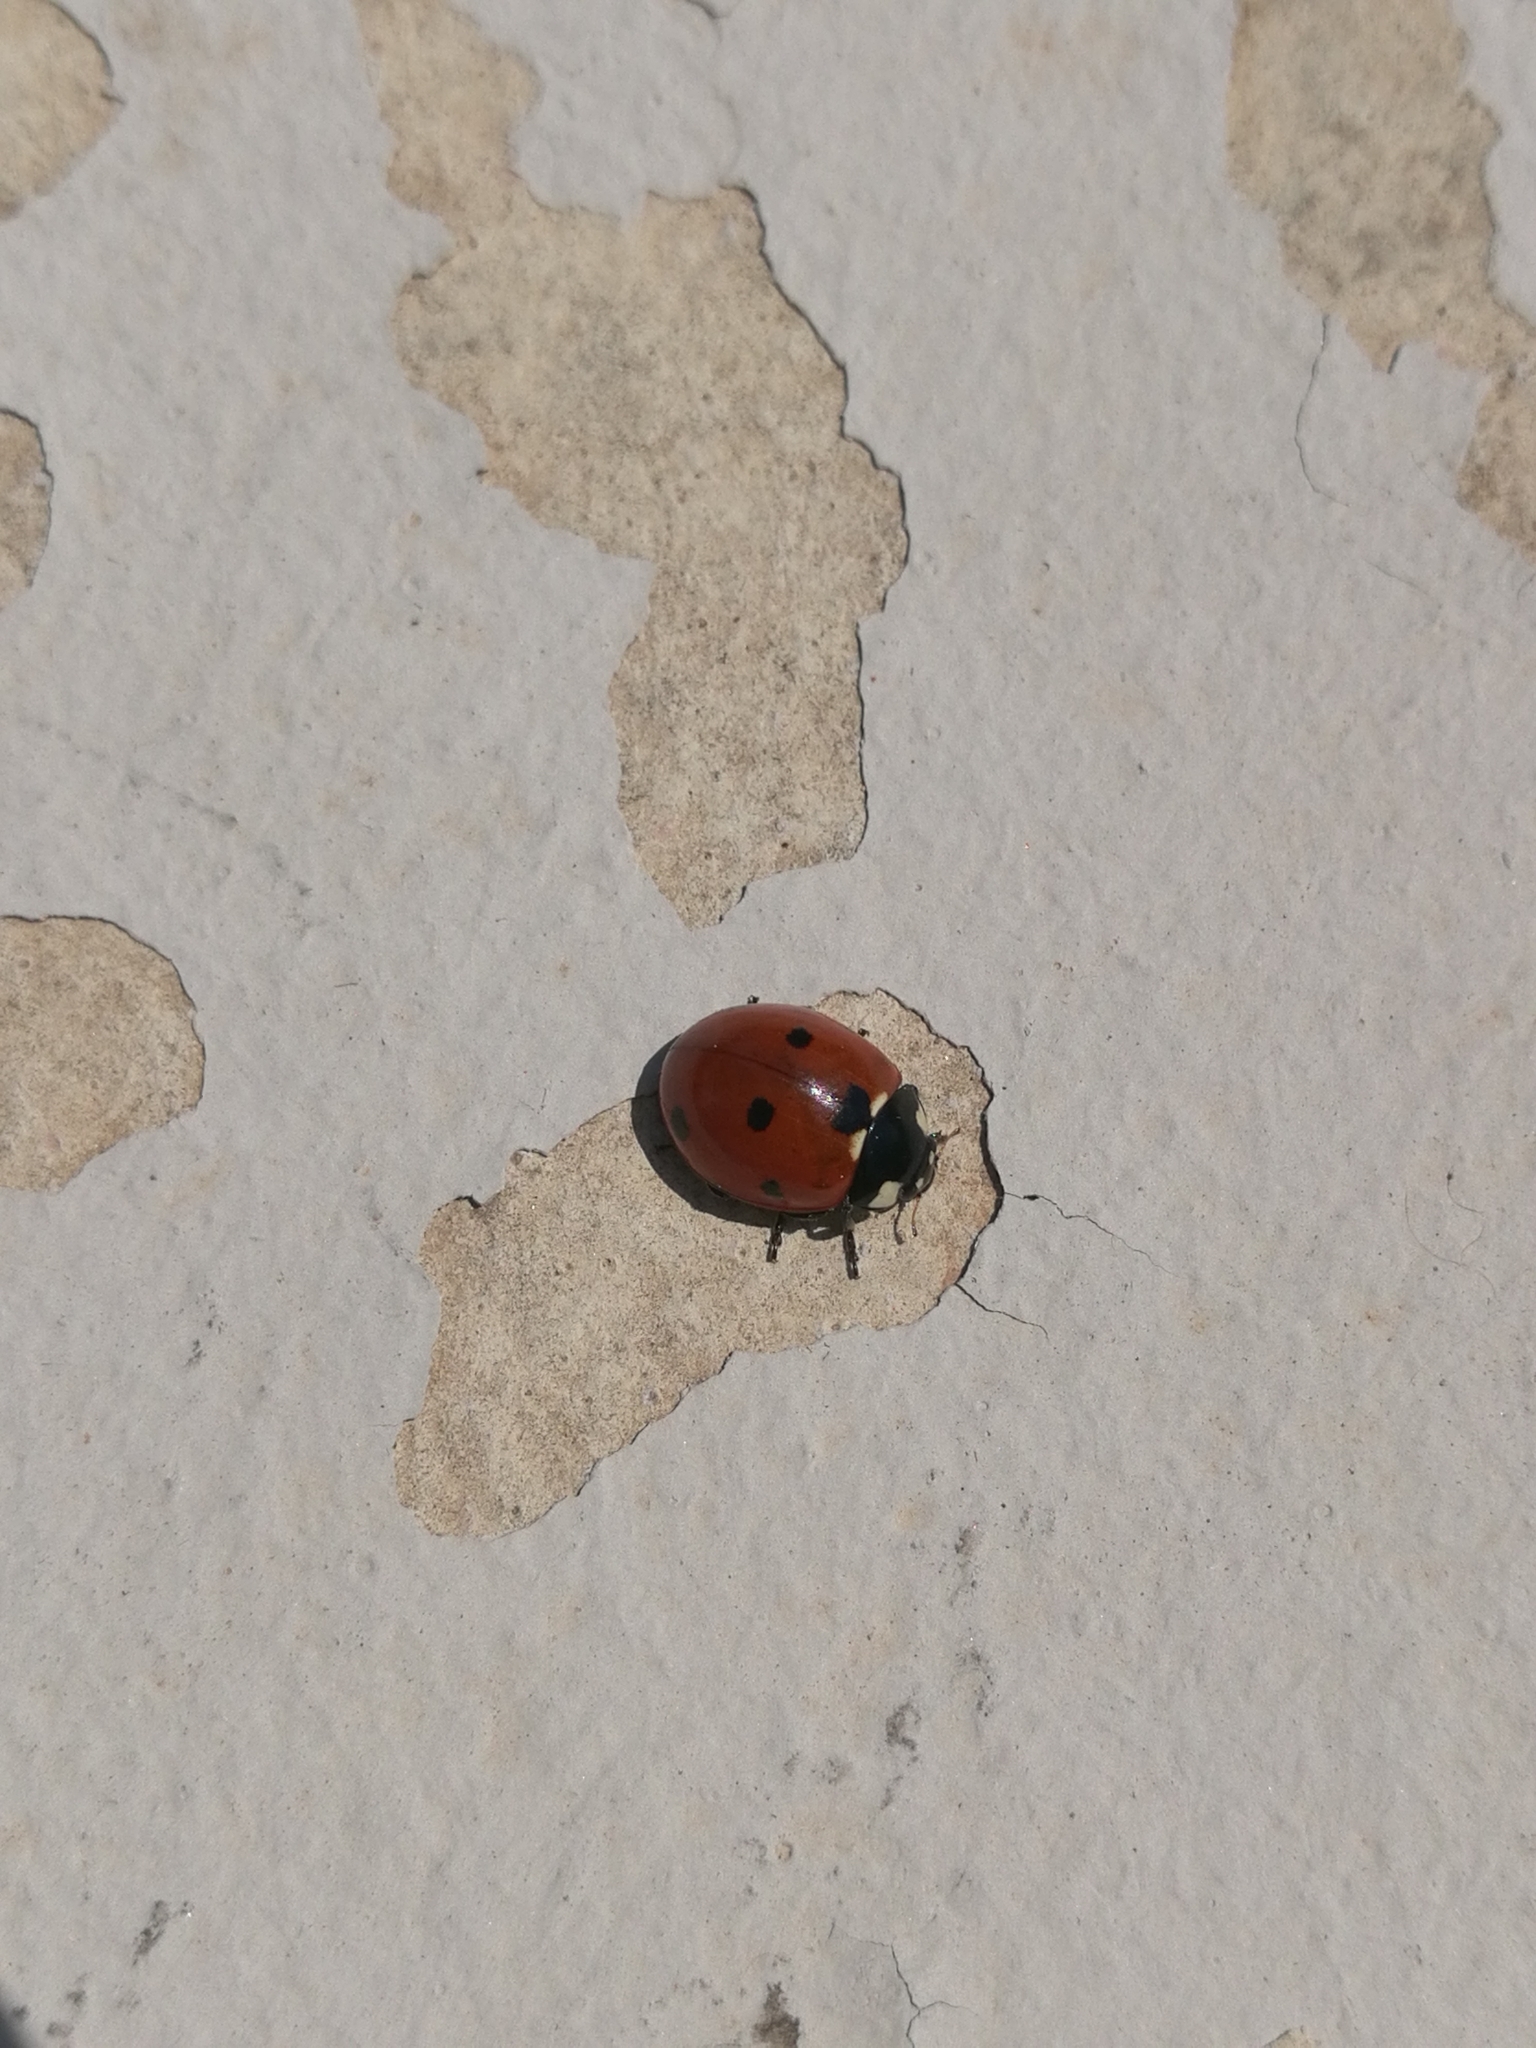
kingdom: Animalia
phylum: Arthropoda
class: Insecta
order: Coleoptera
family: Coccinellidae
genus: Coccinella
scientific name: Coccinella septempunctata
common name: Sevenspotted lady beetle
